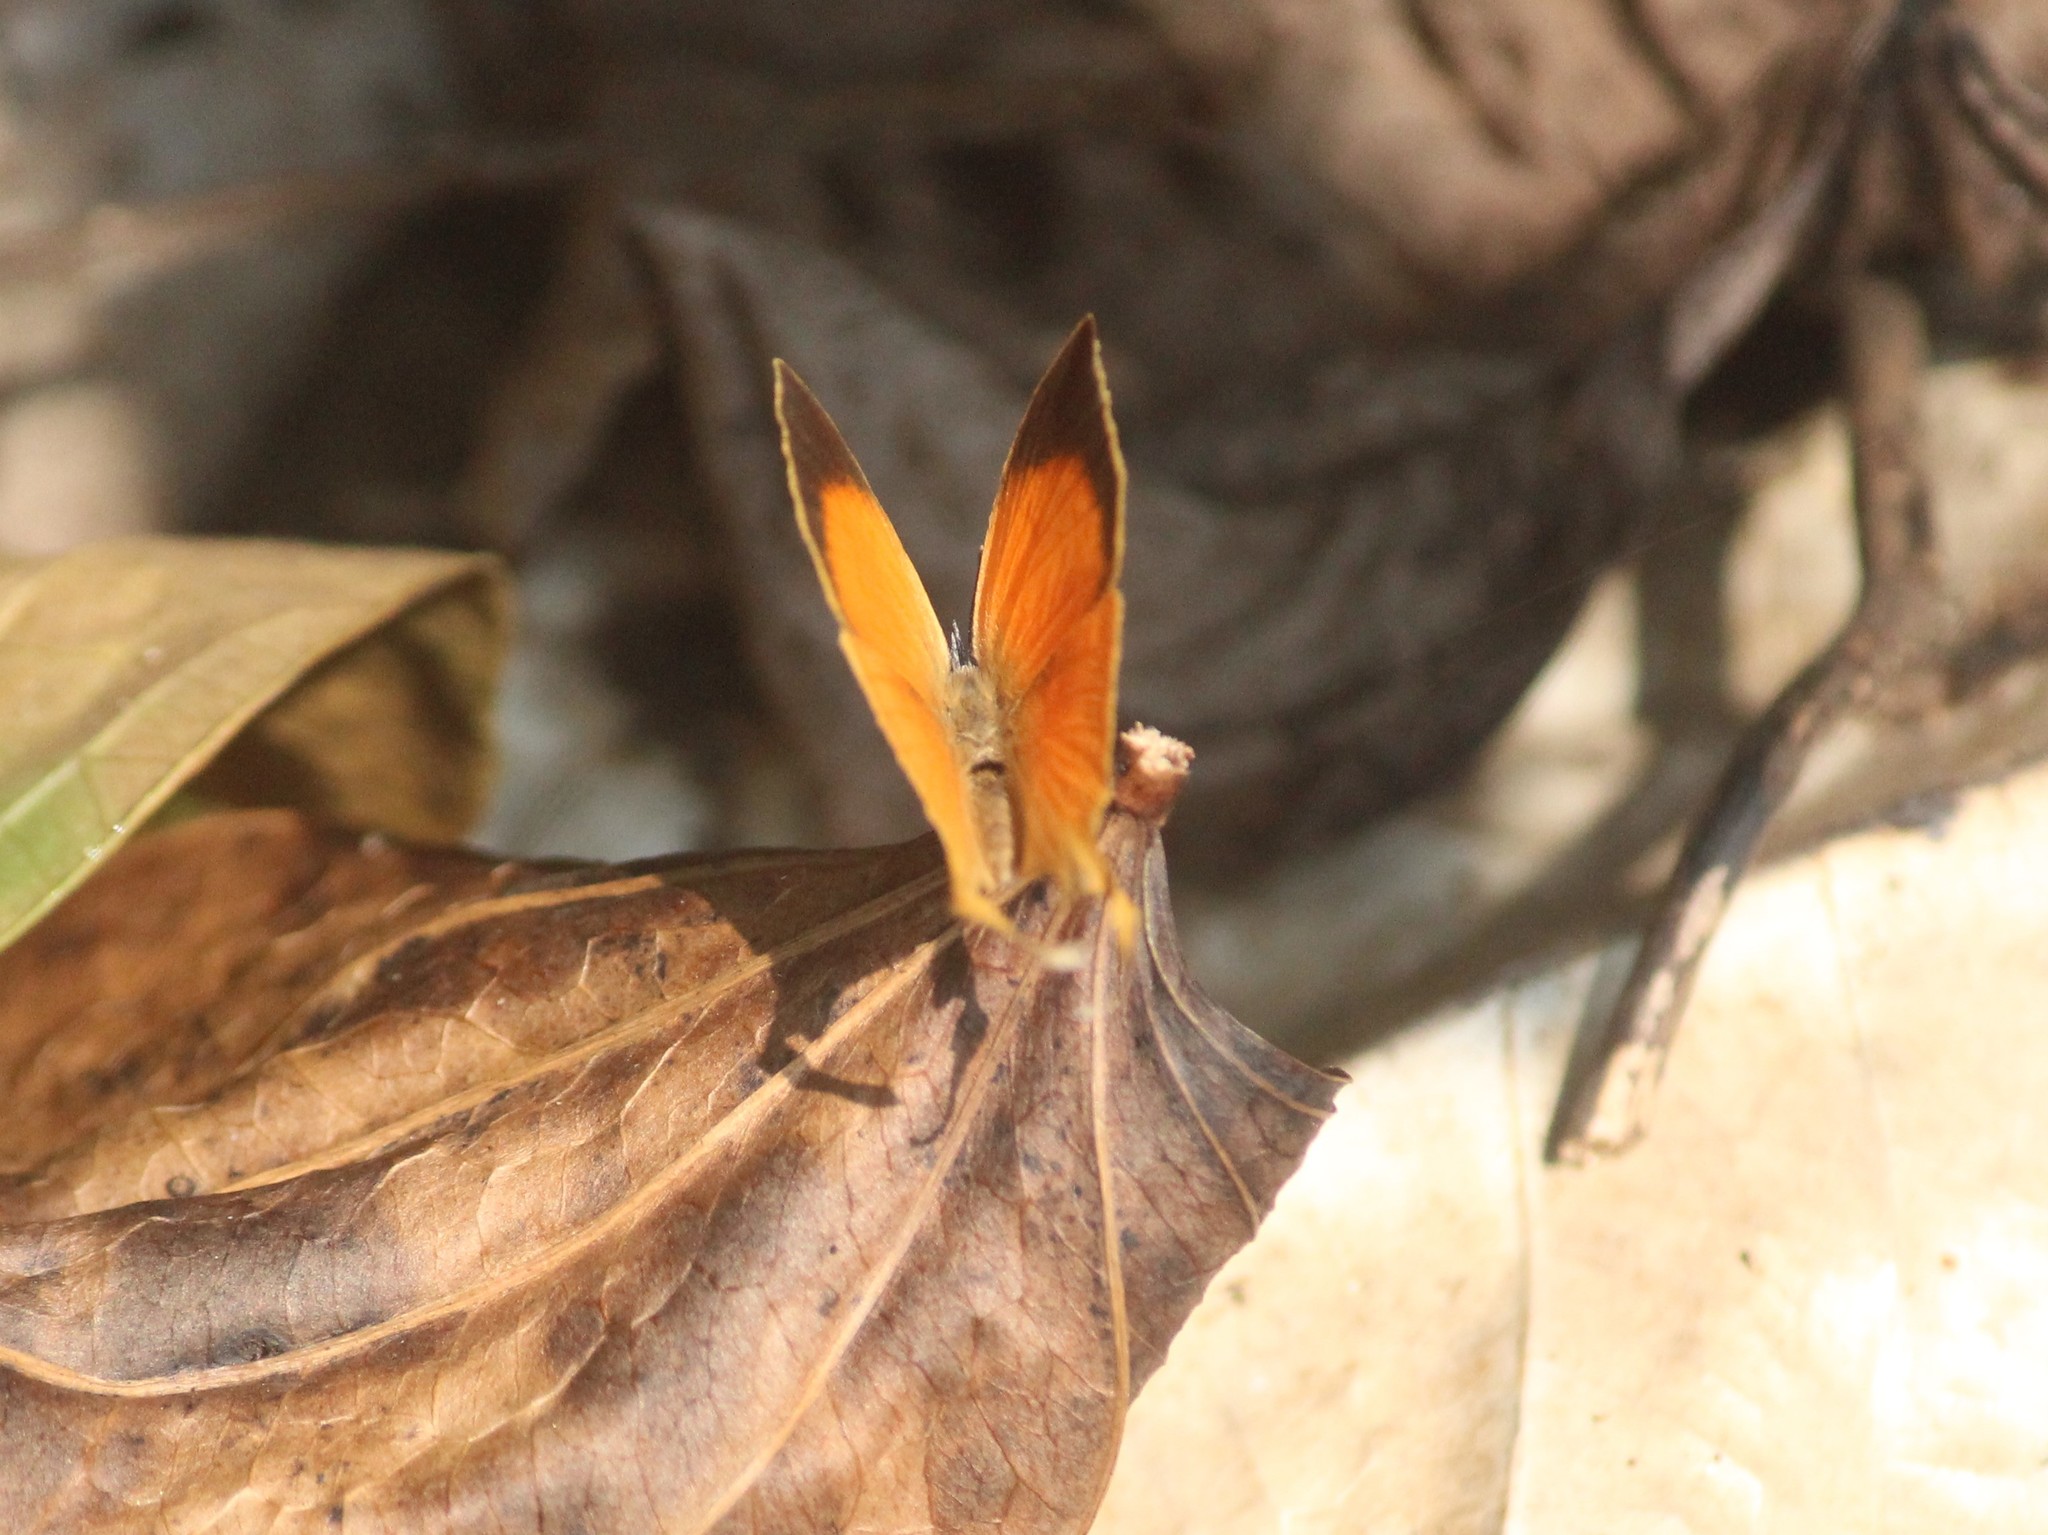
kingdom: Animalia
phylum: Arthropoda
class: Insecta
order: Lepidoptera
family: Lycaenidae
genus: Loxura
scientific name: Loxura atymnus
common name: Common yamfly
